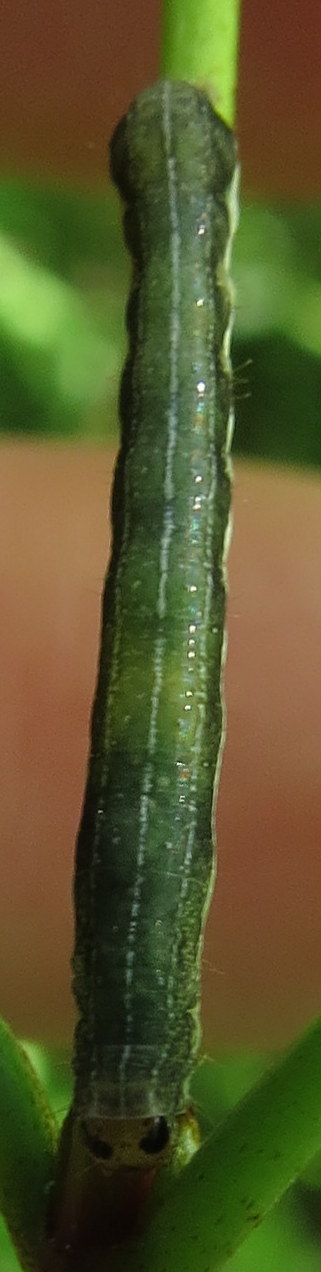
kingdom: Animalia
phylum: Arthropoda
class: Insecta
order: Lepidoptera
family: Noctuidae
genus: Crocigrapha
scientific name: Crocigrapha normani
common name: Norman's quaker
